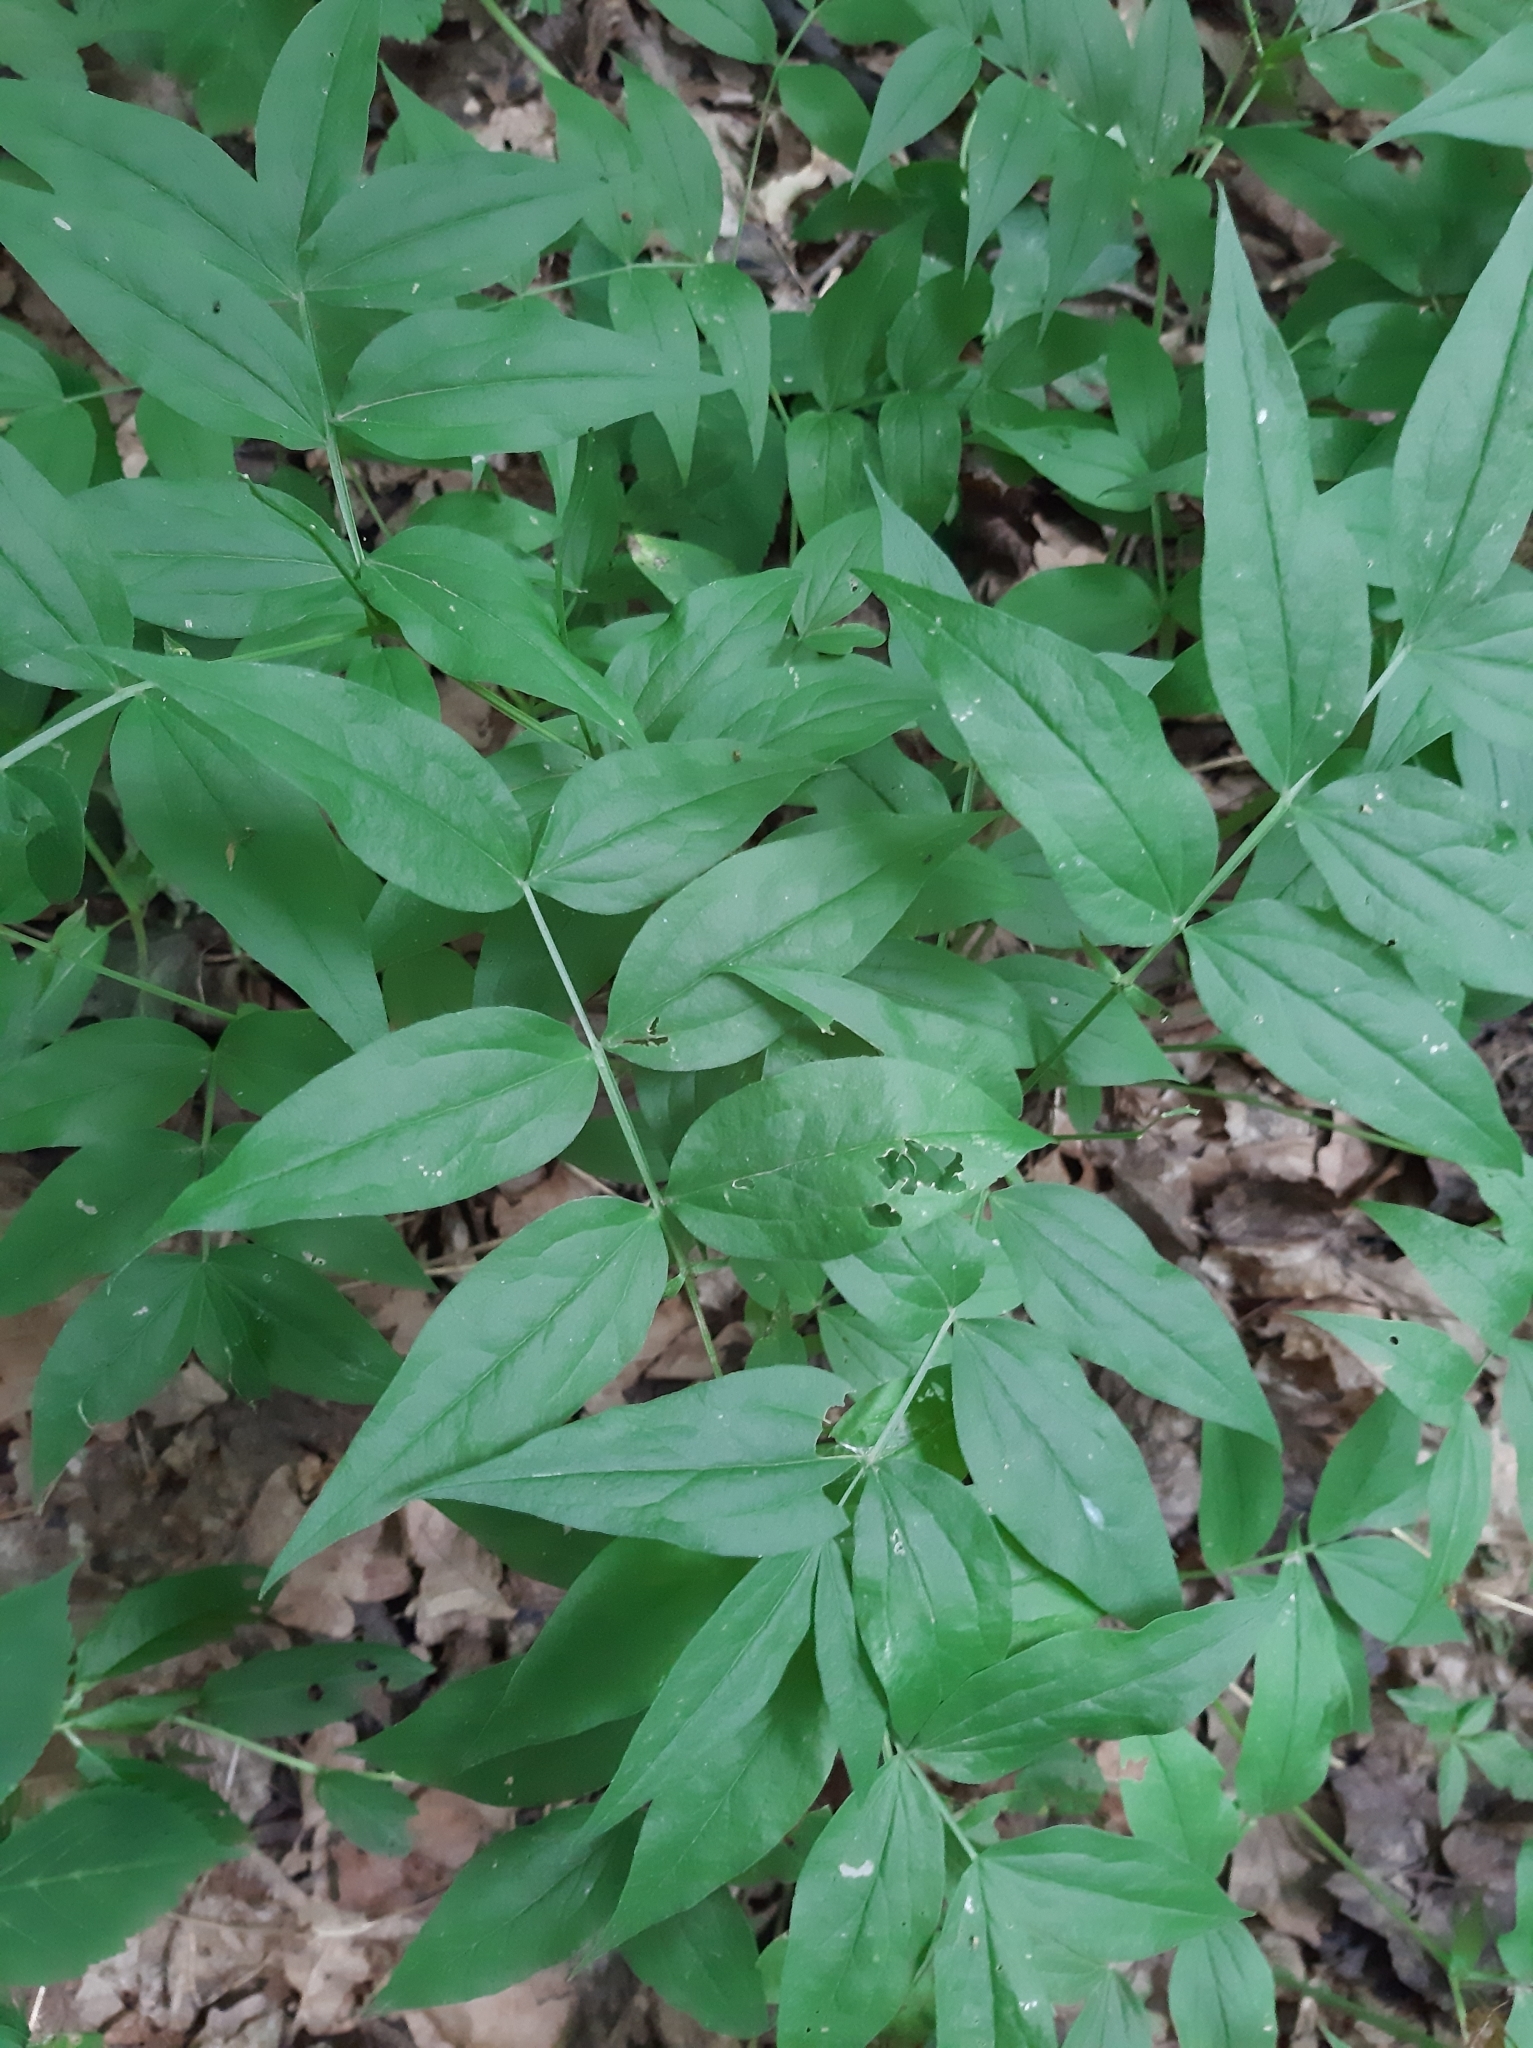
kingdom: Plantae
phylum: Tracheophyta
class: Magnoliopsida
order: Fabales
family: Fabaceae
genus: Lathyrus
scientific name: Lathyrus vernus
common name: Spring pea
